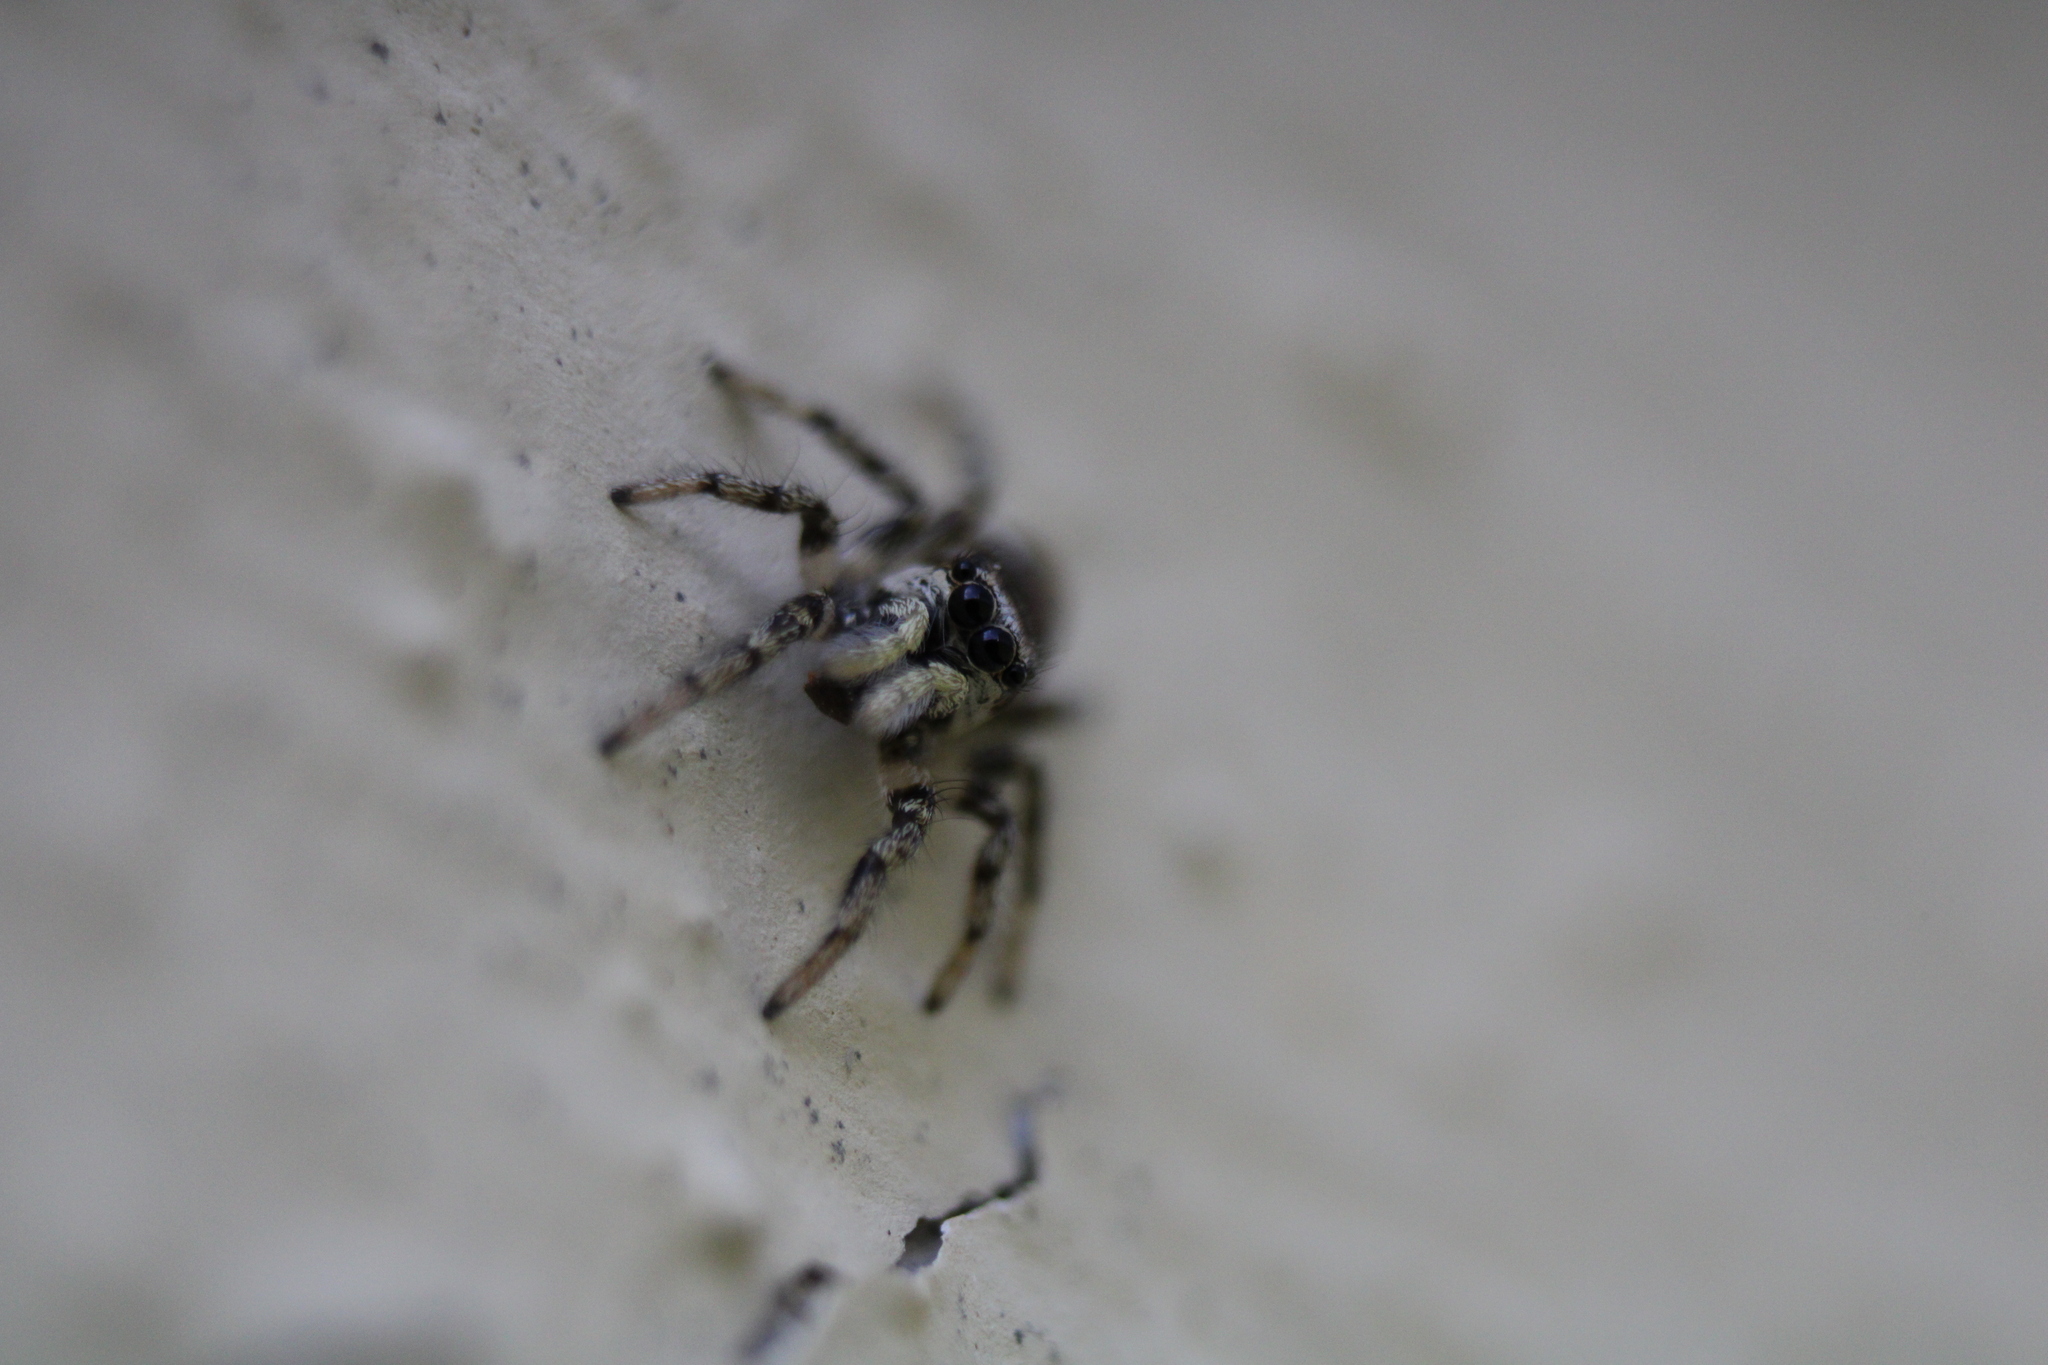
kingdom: Animalia
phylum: Arthropoda
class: Arachnida
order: Araneae
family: Salticidae
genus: Salticus
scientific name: Salticus scenicus
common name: Zebra jumper
